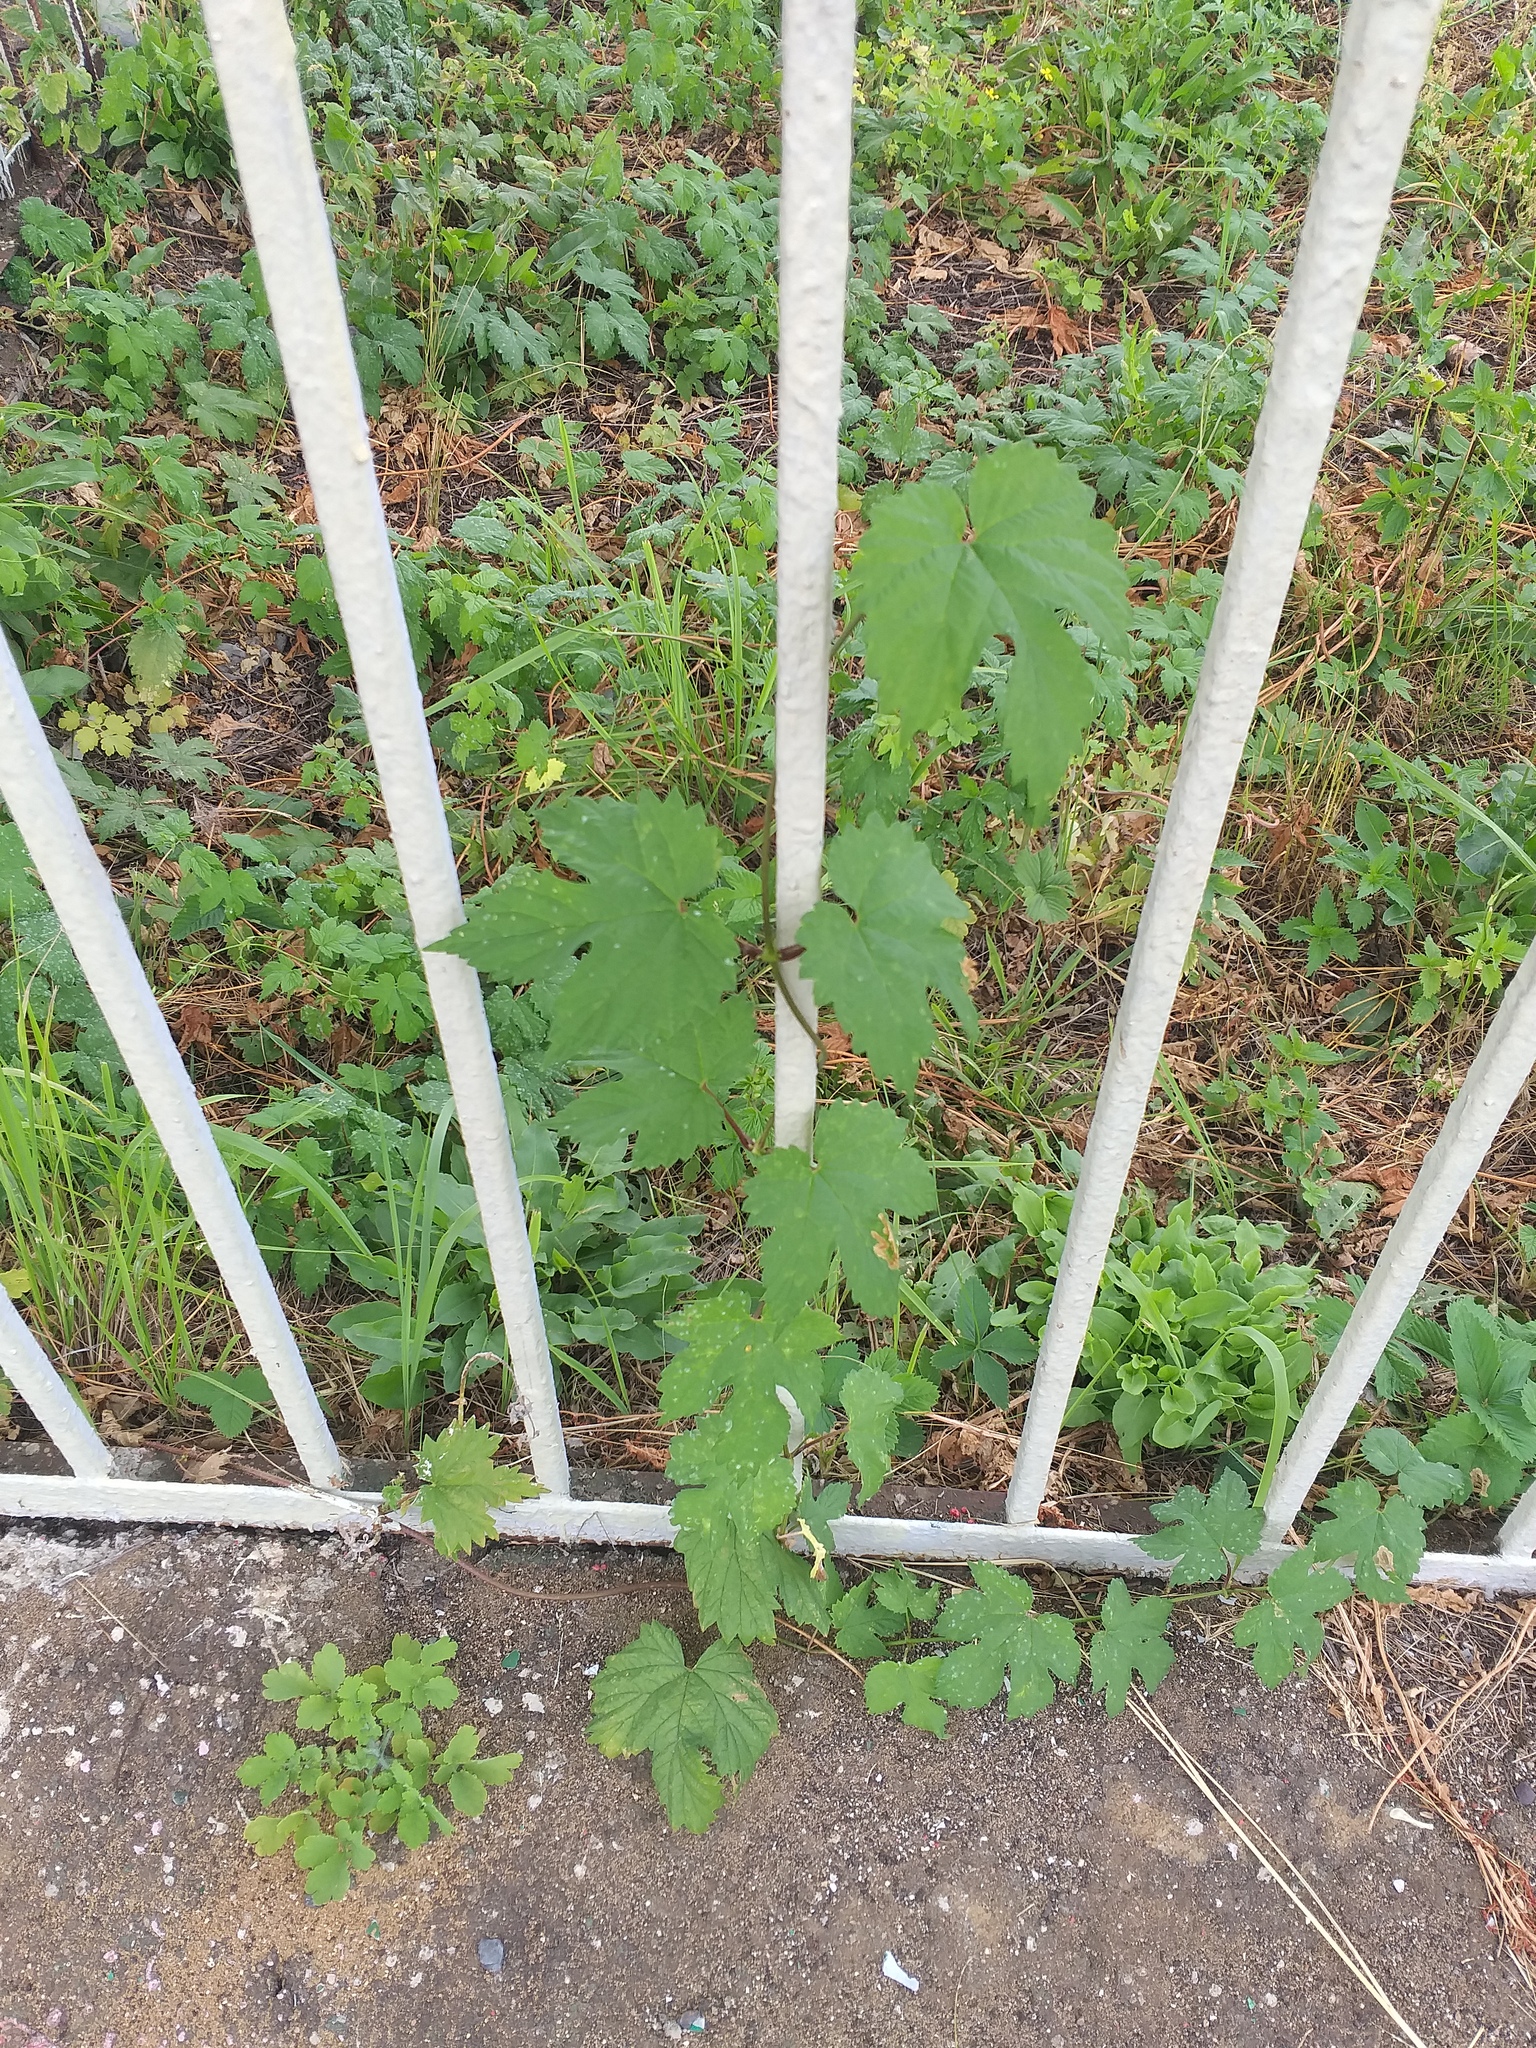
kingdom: Plantae
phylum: Tracheophyta
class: Magnoliopsida
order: Rosales
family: Cannabaceae
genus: Humulus
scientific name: Humulus lupulus
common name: Hop
